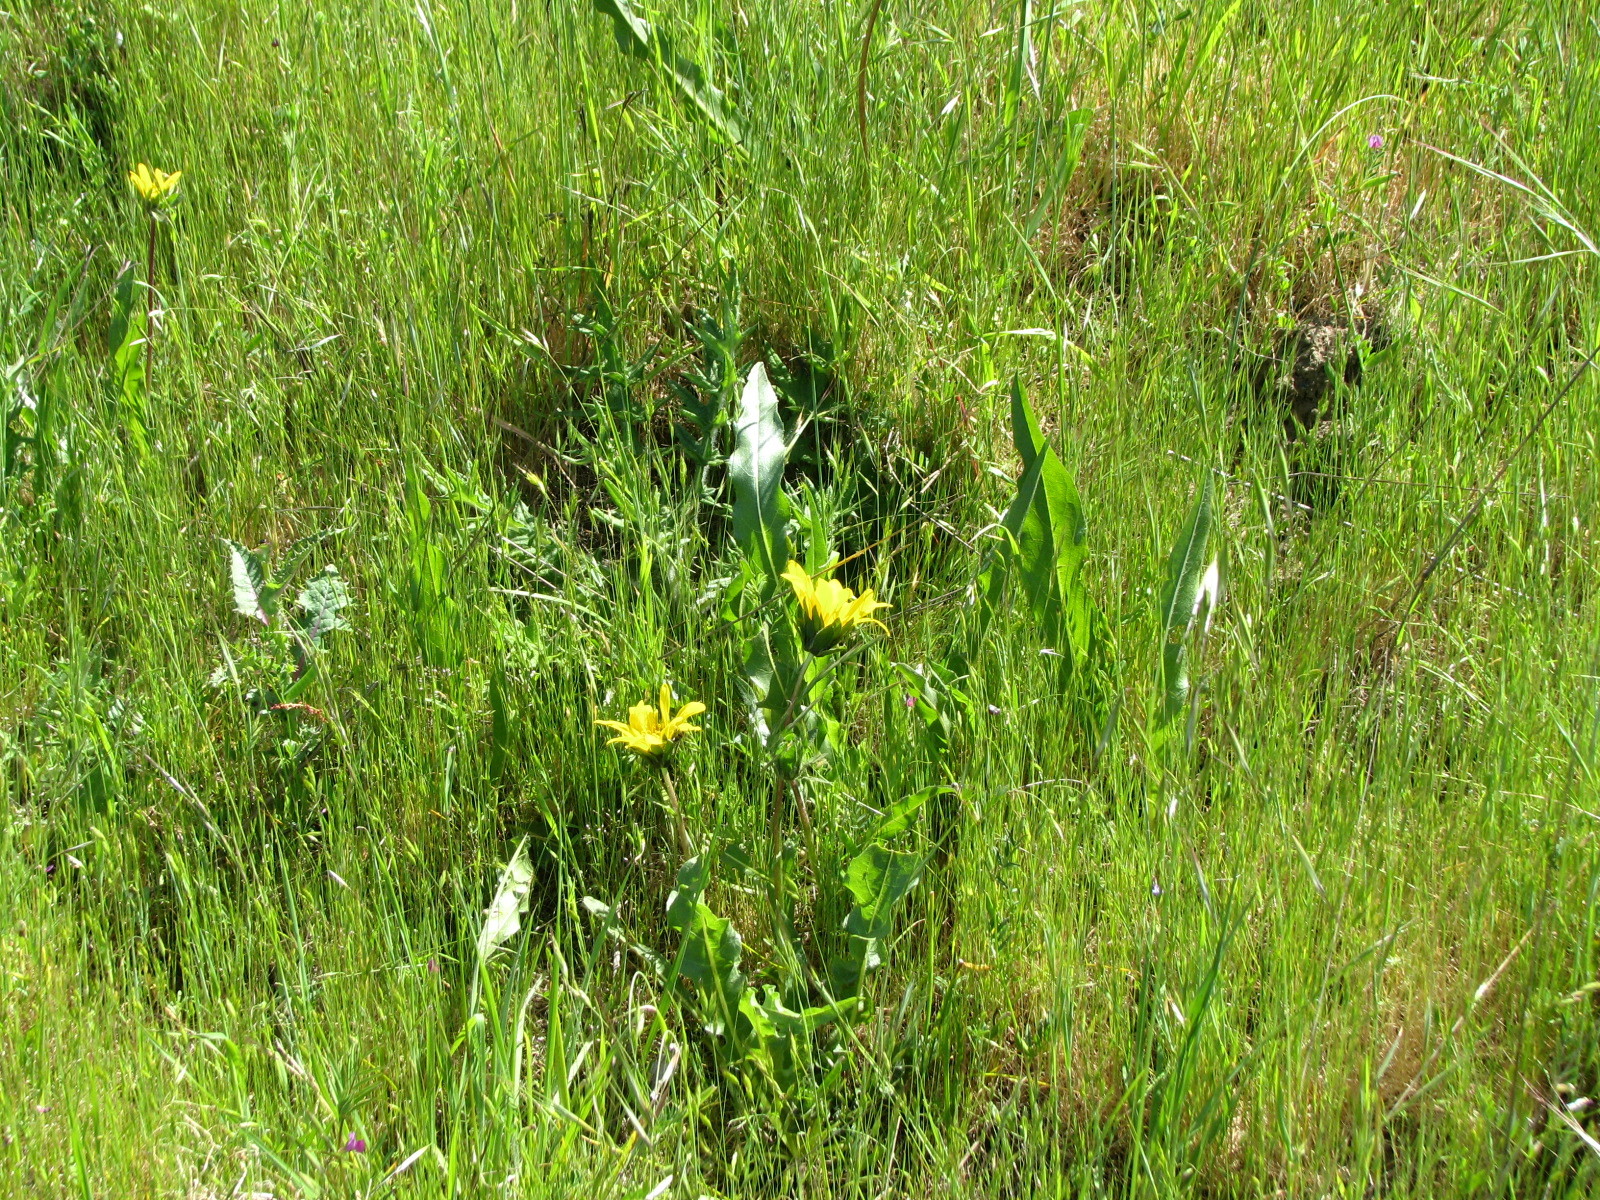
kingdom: Plantae
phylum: Tracheophyta
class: Magnoliopsida
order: Asterales
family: Asteraceae
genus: Wyethia
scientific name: Wyethia angustifolia
